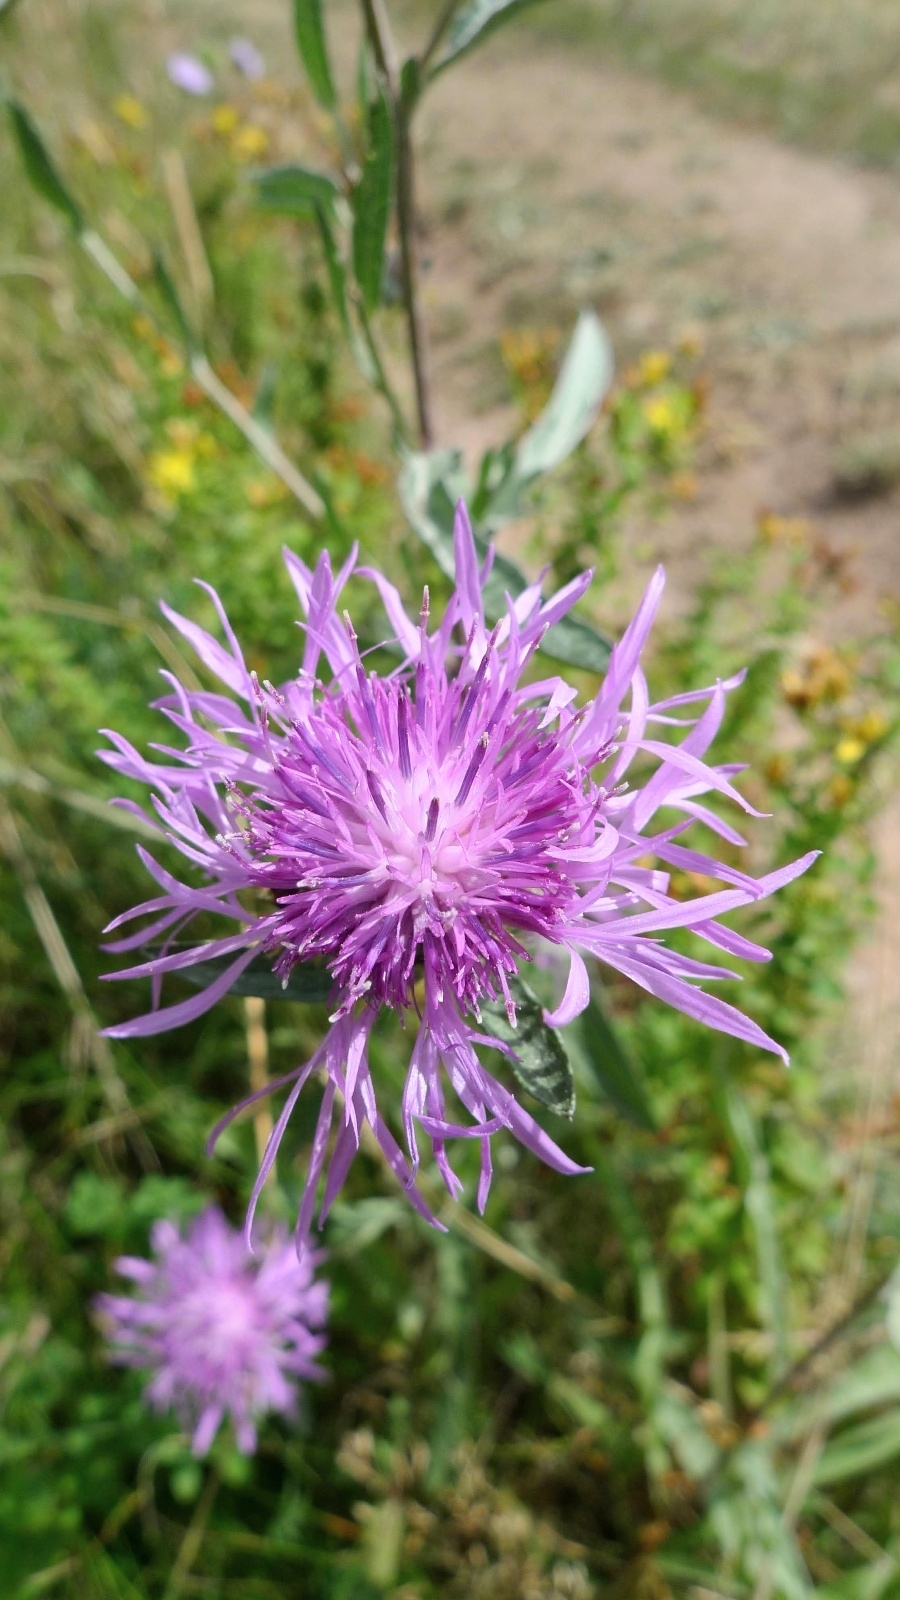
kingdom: Plantae
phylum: Tracheophyta
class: Magnoliopsida
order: Asterales
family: Asteraceae
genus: Centaurea
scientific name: Centaurea jacea
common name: Brown knapweed
